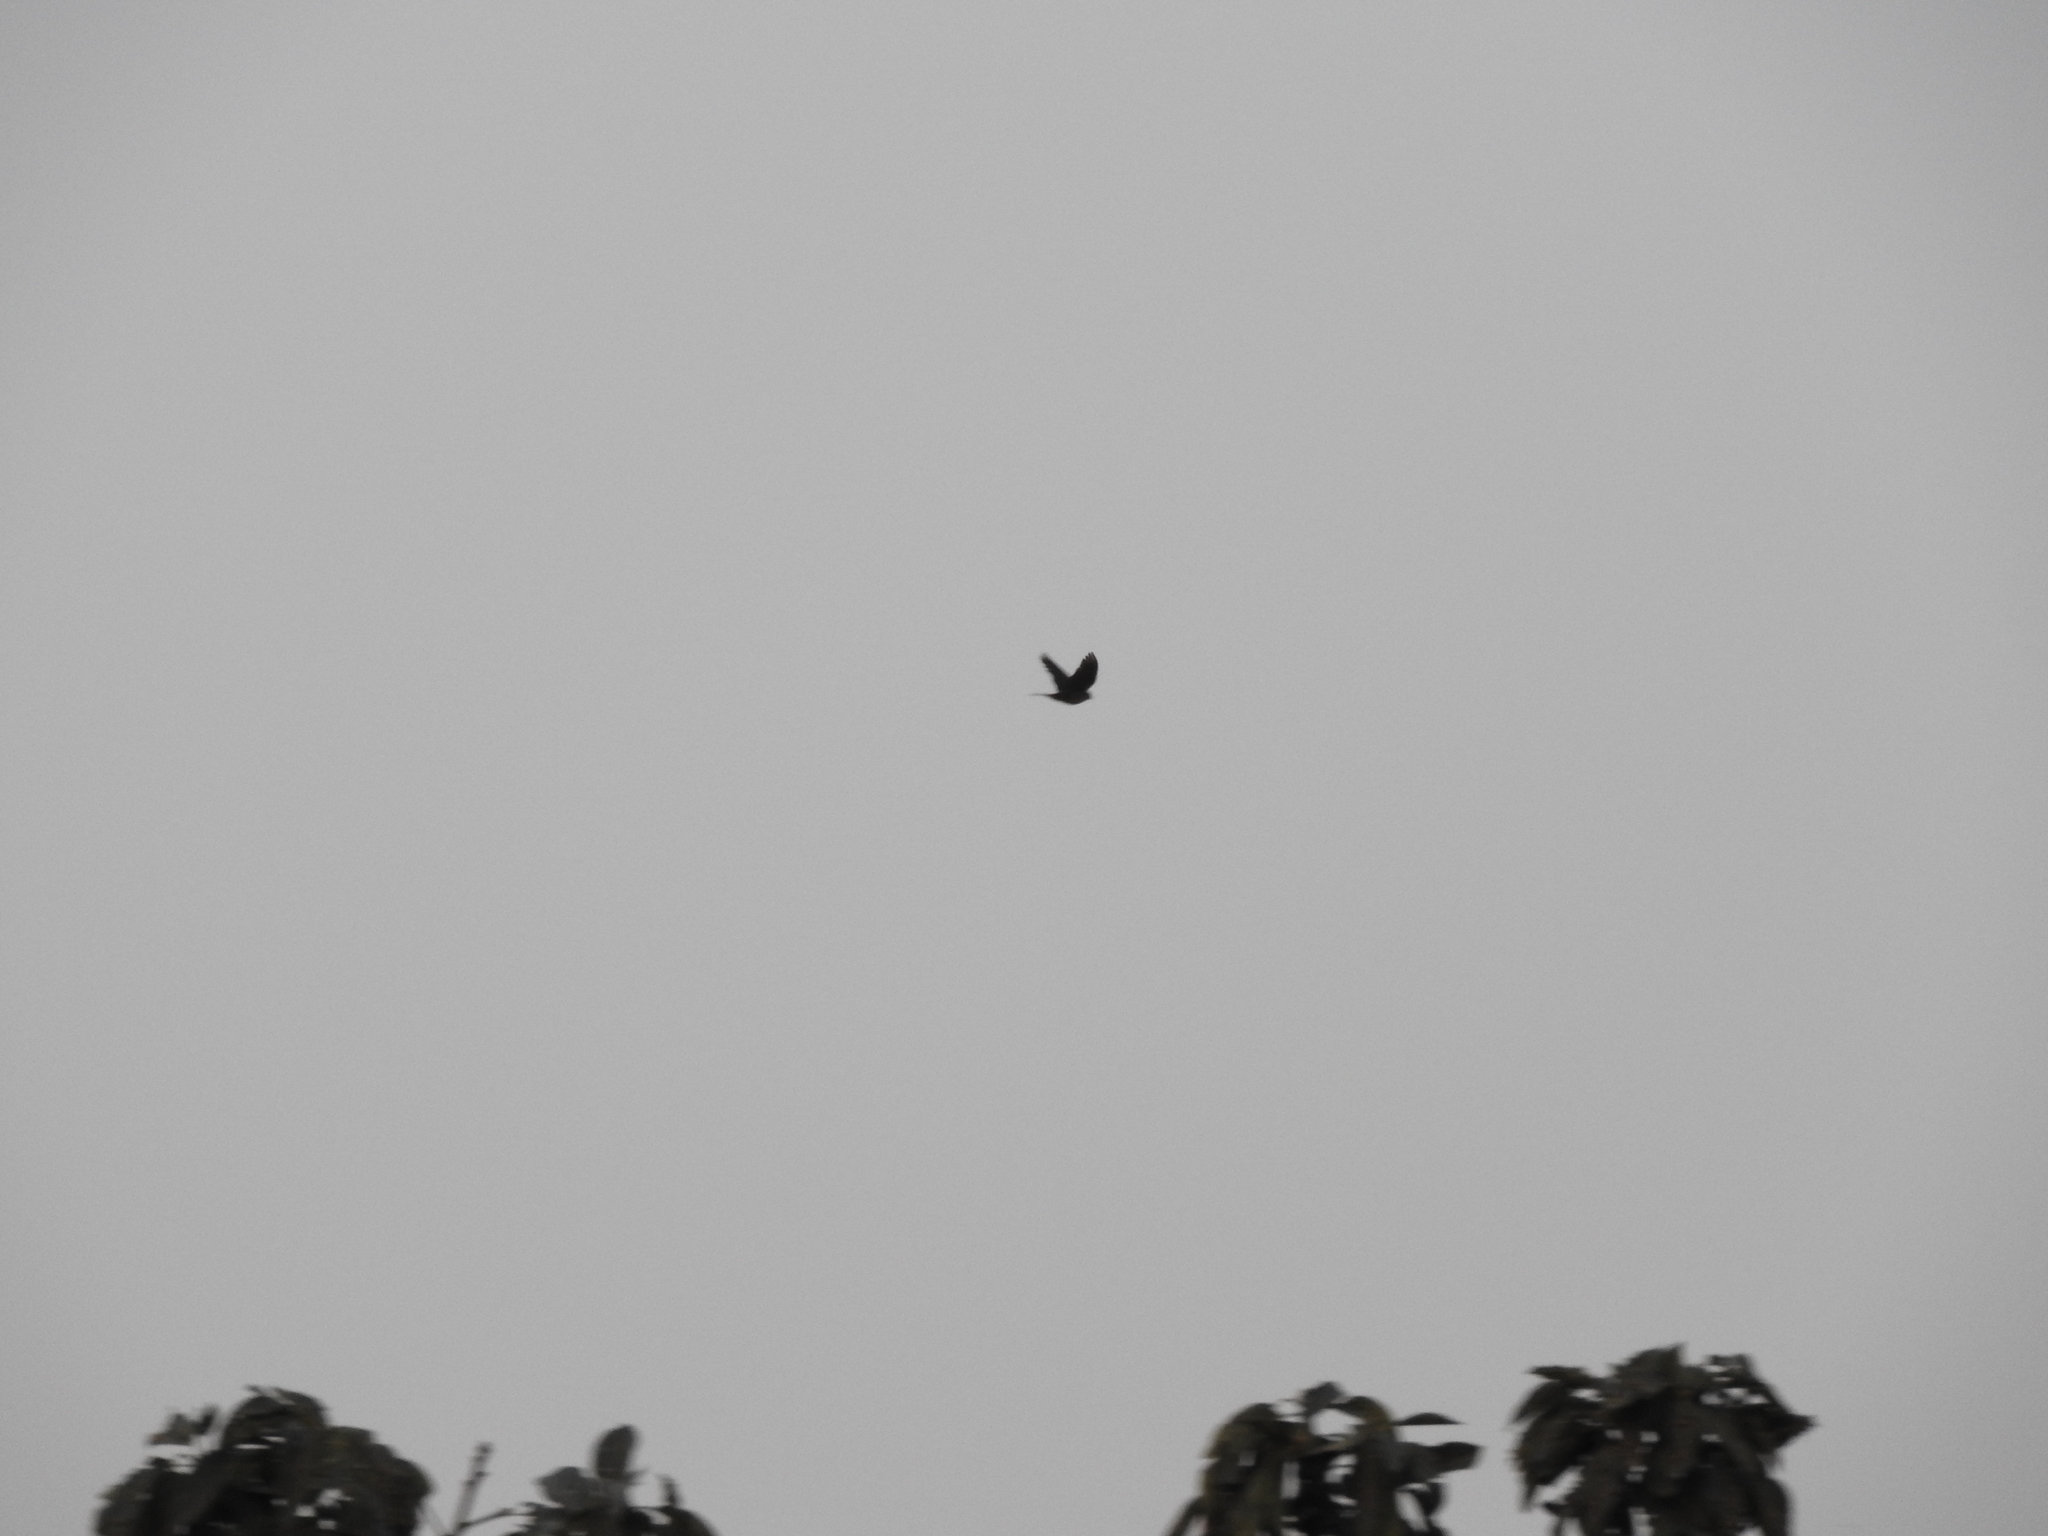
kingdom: Animalia
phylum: Chordata
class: Aves
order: Columbiformes
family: Columbidae
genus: Columba
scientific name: Columba livia
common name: Rock pigeon
